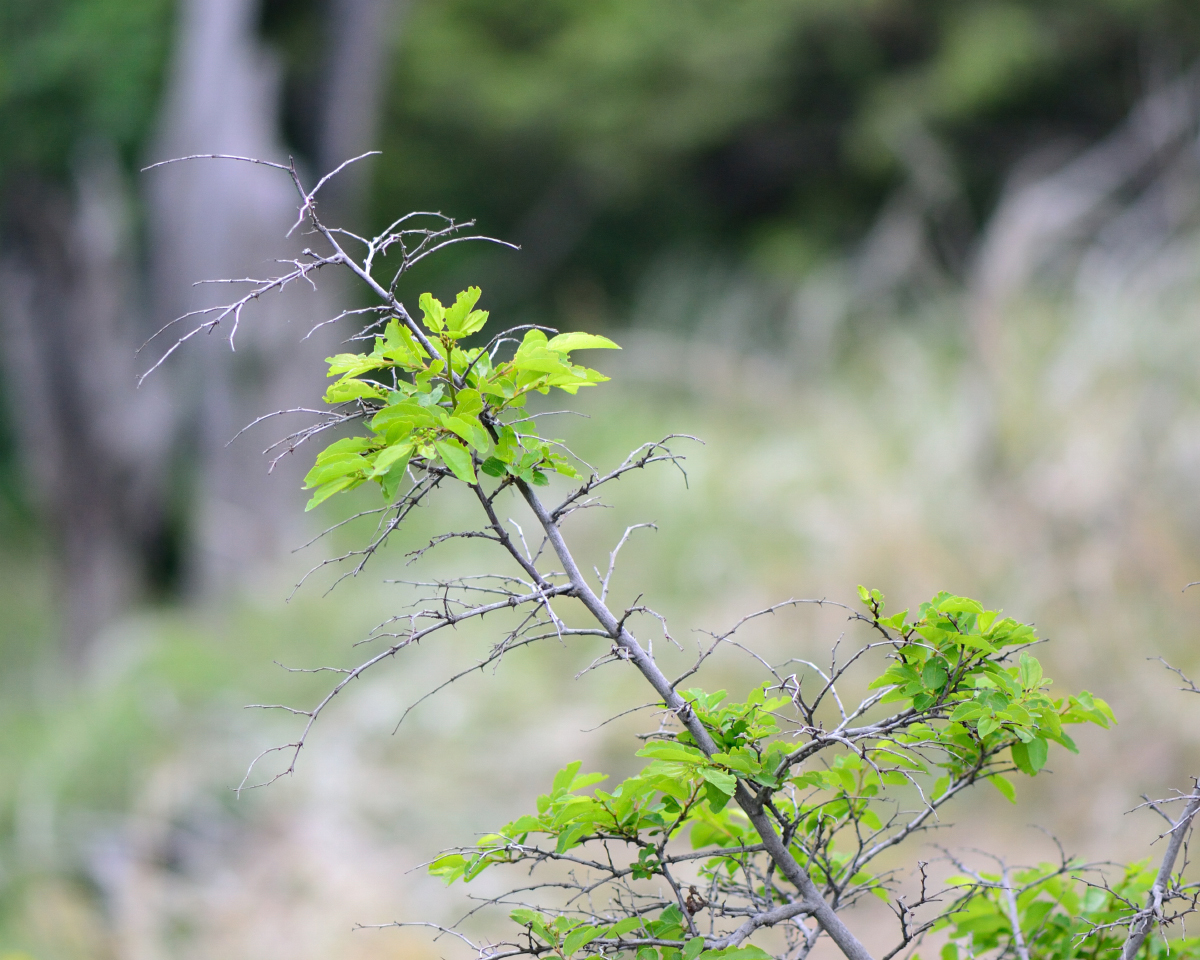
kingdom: Plantae
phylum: Tracheophyta
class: Magnoliopsida
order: Rosales
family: Rhamnaceae
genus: Paliurus
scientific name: Paliurus spina-christi
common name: Jeruselem thorn
